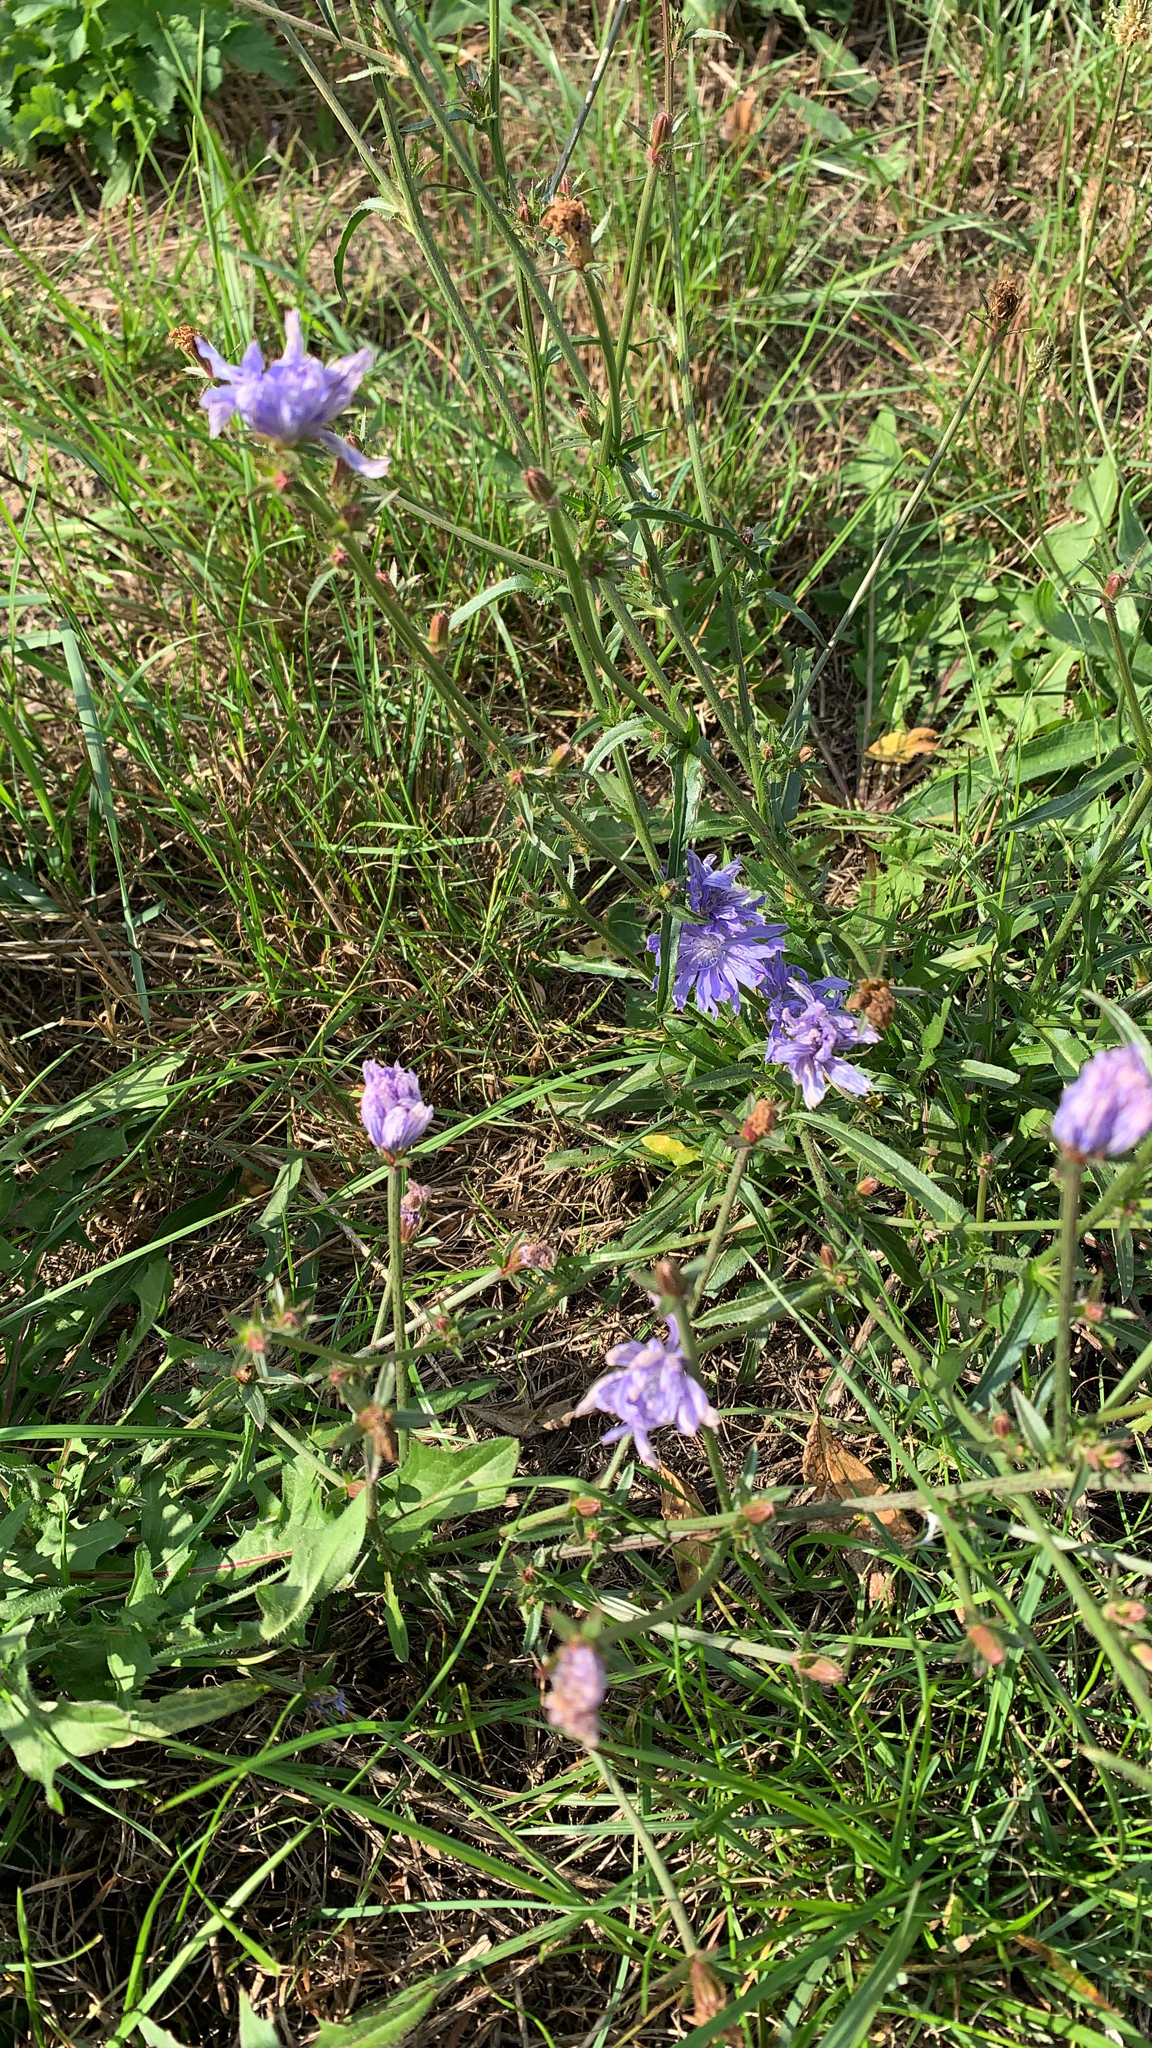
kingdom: Plantae
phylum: Tracheophyta
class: Magnoliopsida
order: Asterales
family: Asteraceae
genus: Cichorium
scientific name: Cichorium intybus
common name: Chicory
